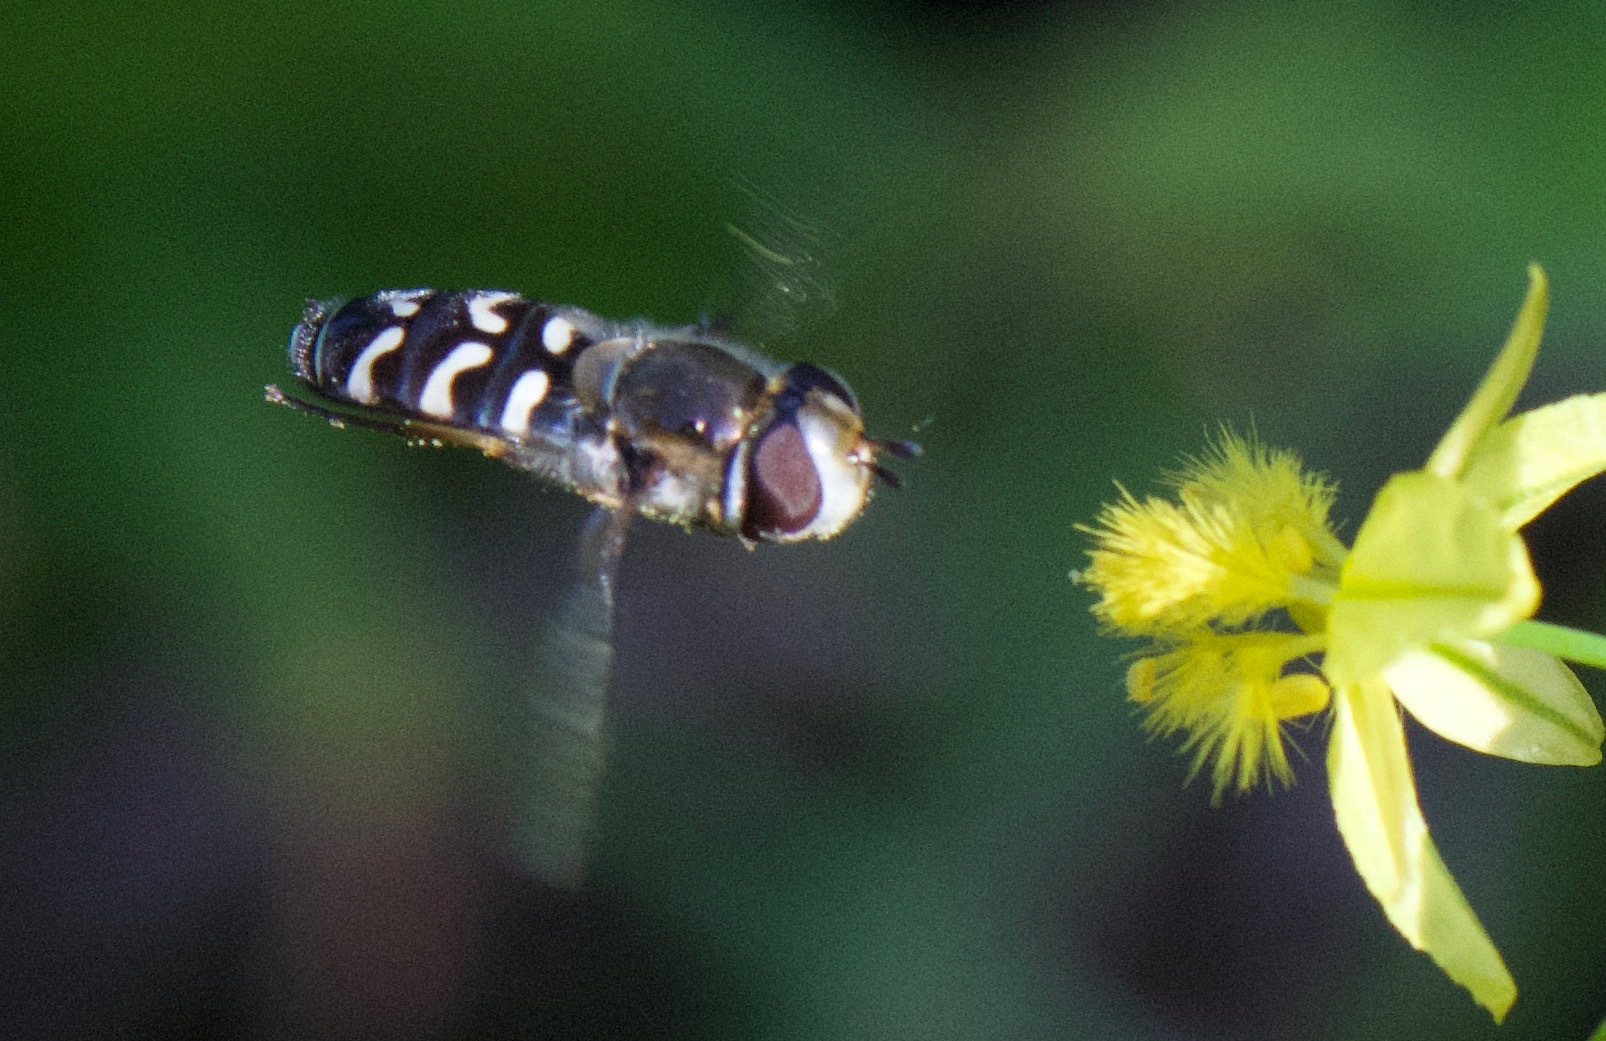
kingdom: Animalia
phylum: Arthropoda
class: Insecta
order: Diptera
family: Syrphidae
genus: Scaeva
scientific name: Scaeva affinis
